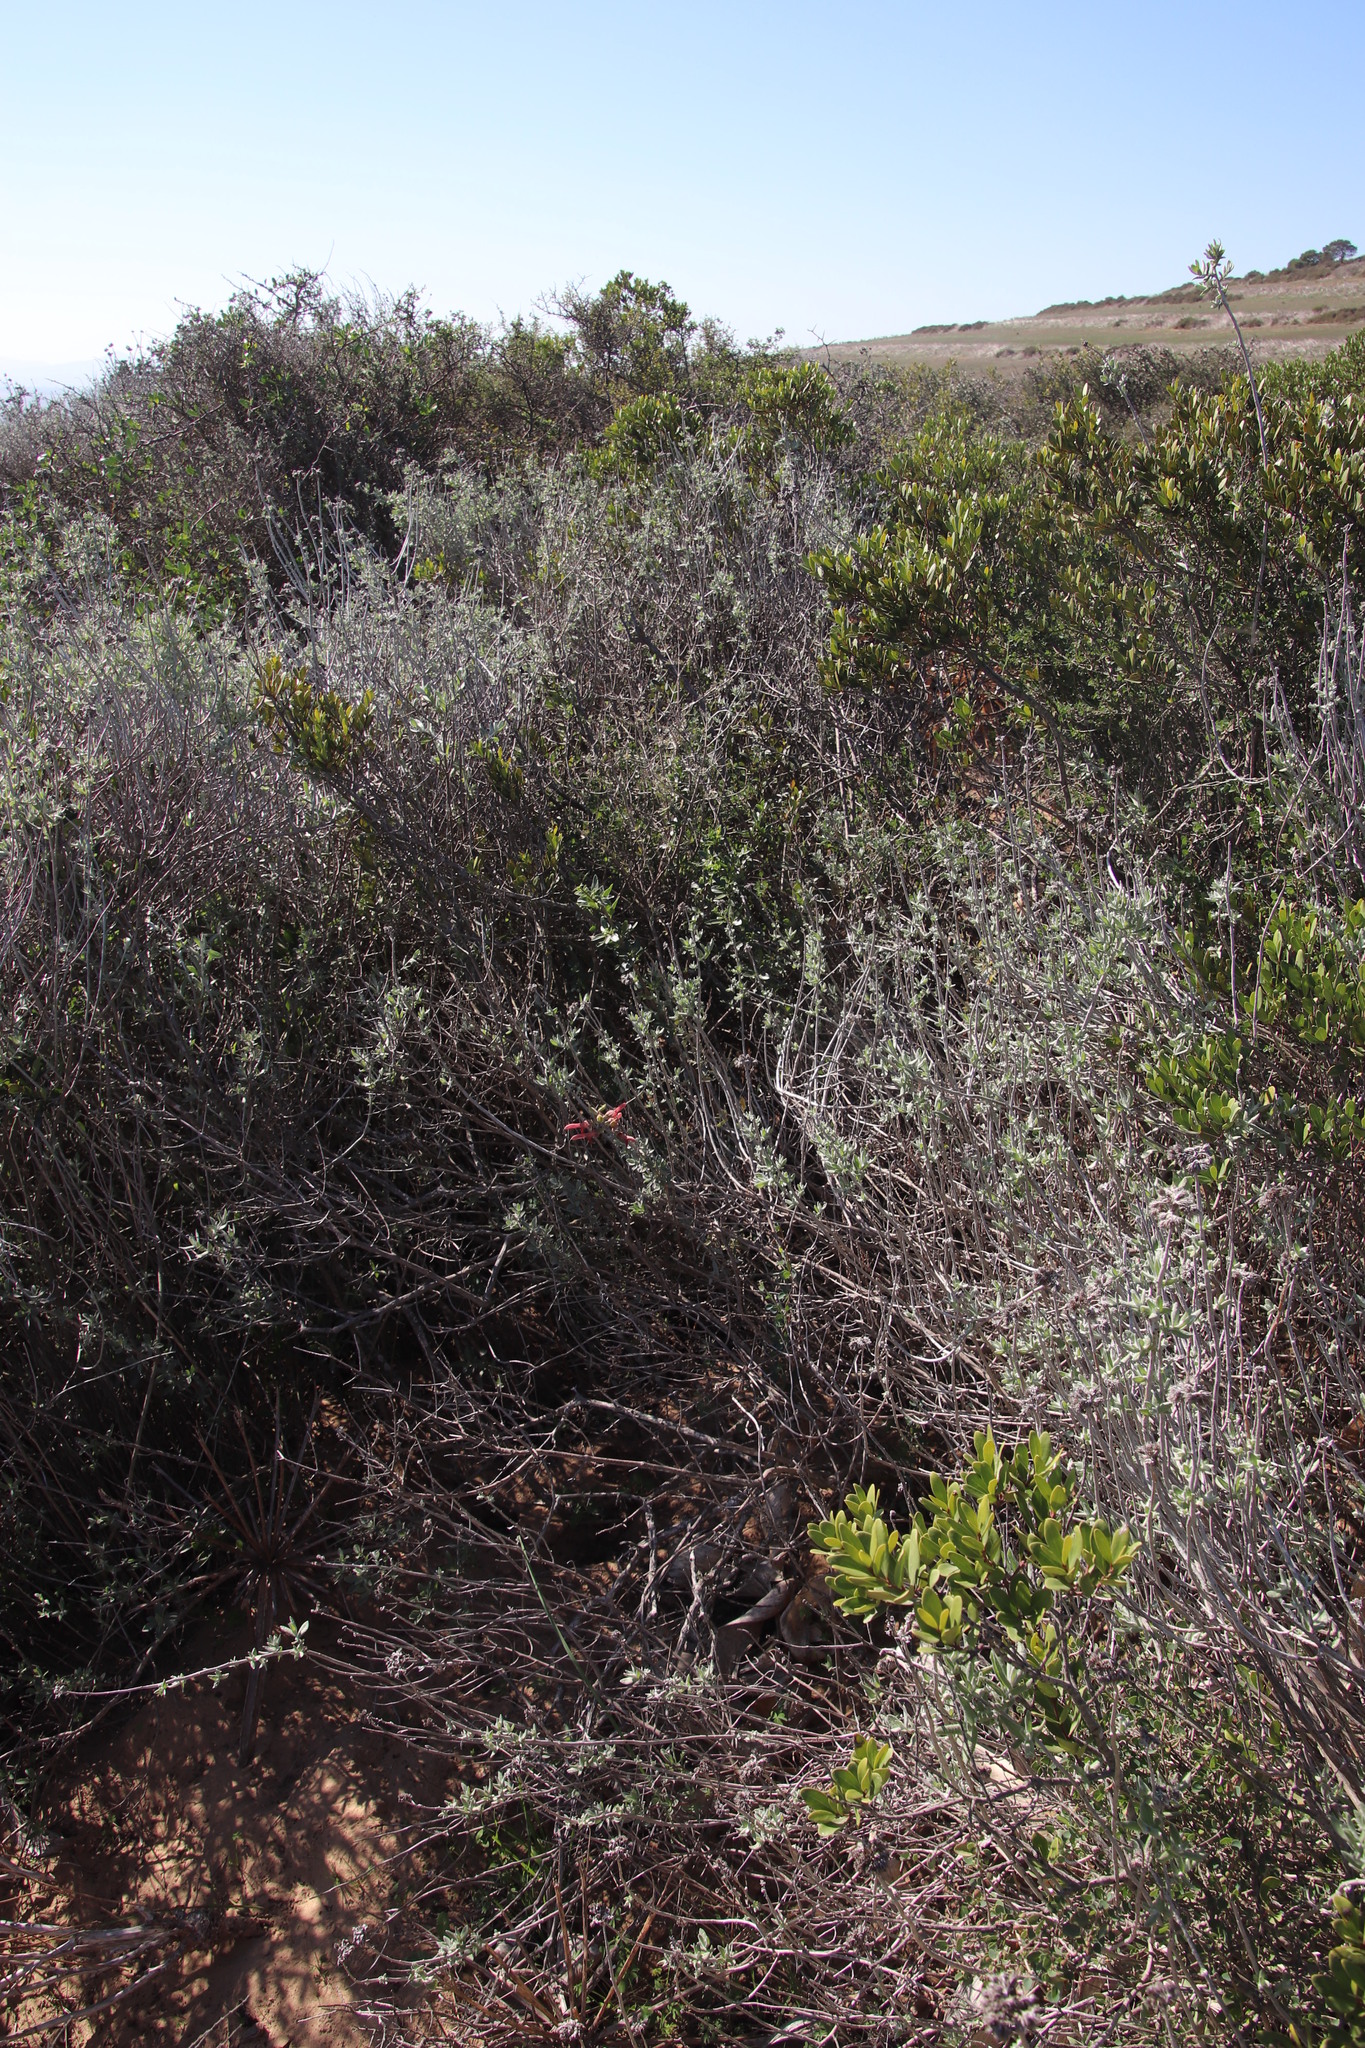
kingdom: Plantae
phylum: Tracheophyta
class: Magnoliopsida
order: Lamiales
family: Lamiaceae
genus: Salvia
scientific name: Salvia lanceolata
